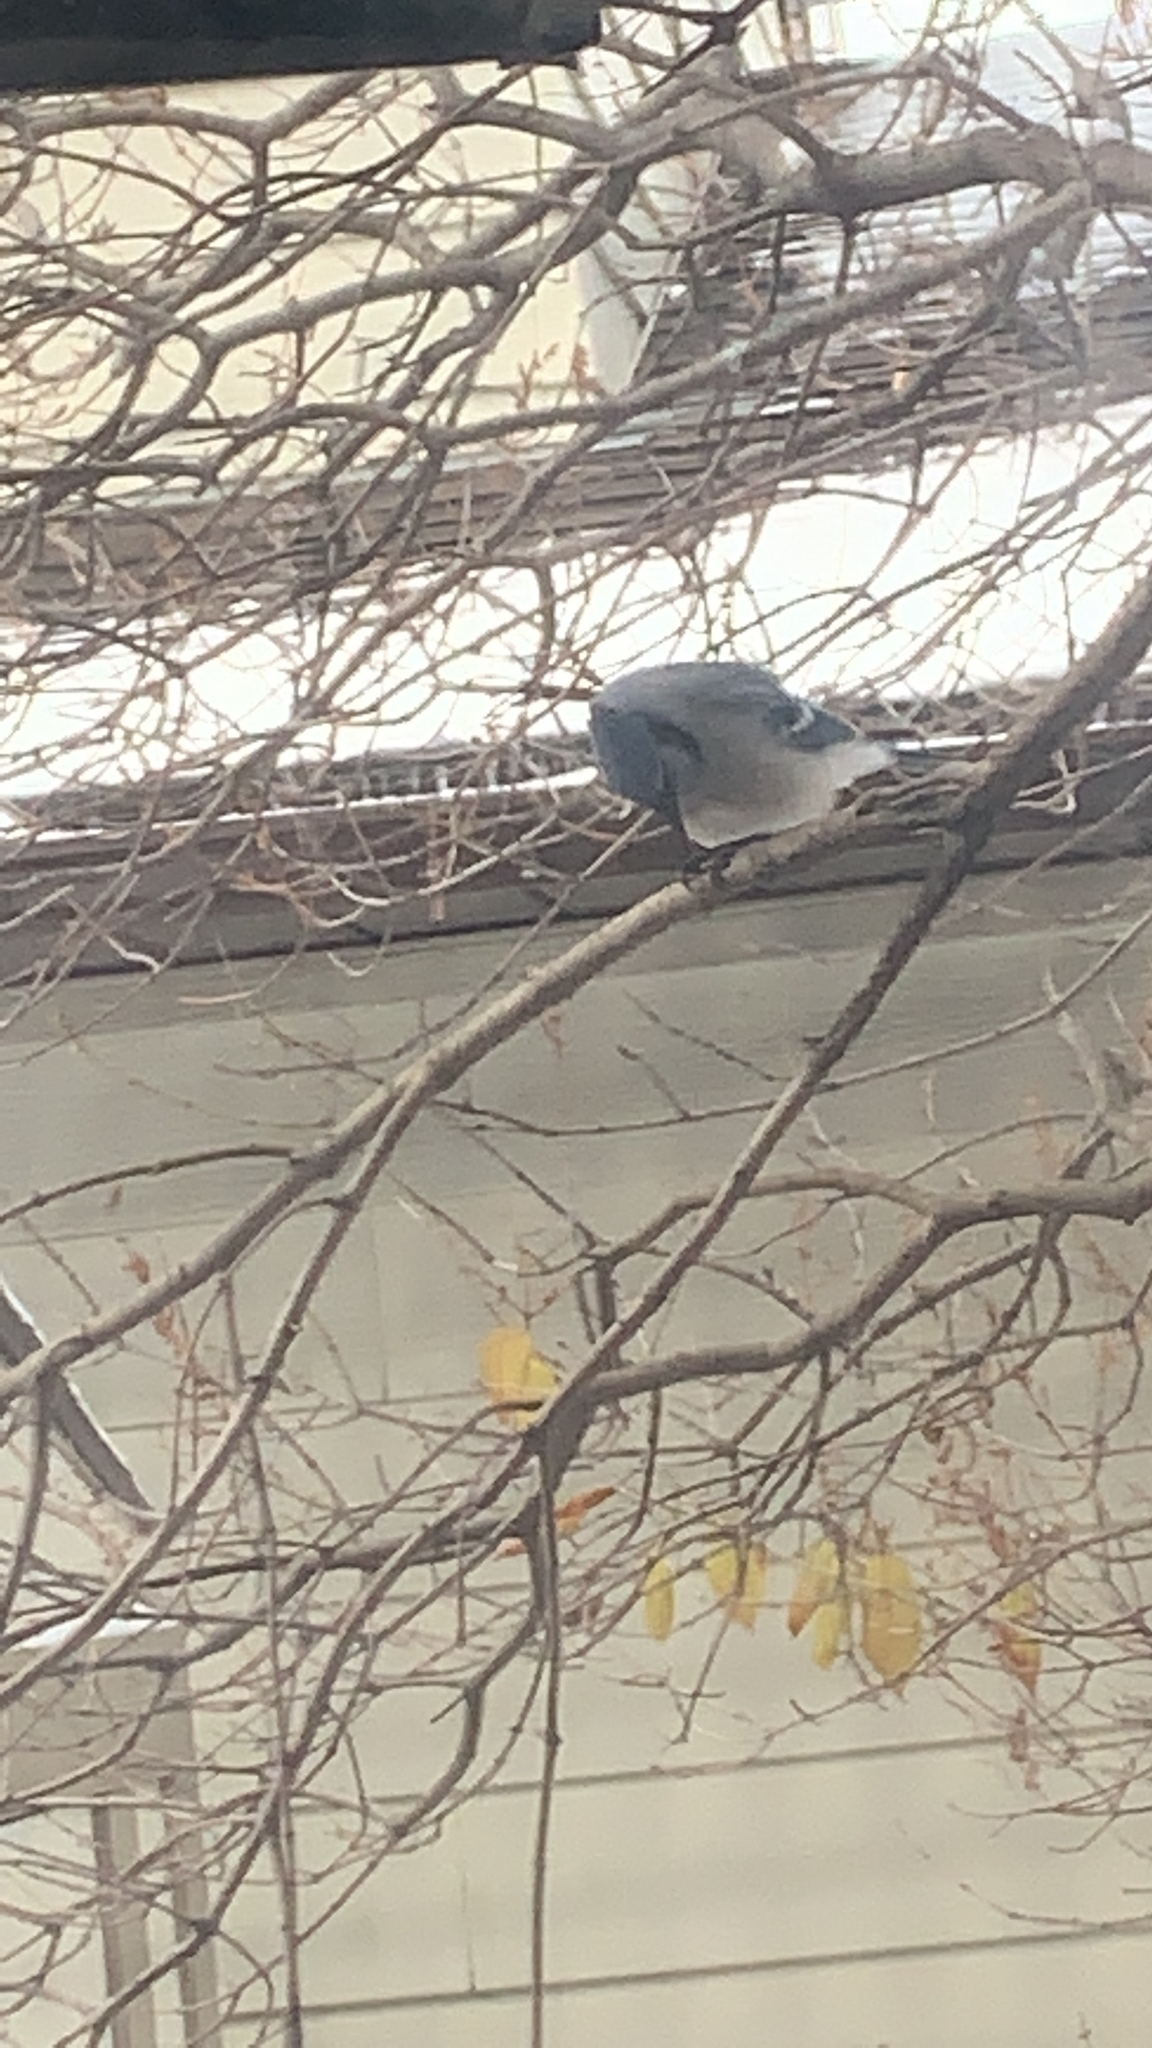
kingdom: Animalia
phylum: Chordata
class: Aves
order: Passeriformes
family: Corvidae
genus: Cyanocitta
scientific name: Cyanocitta cristata
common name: Blue jay
